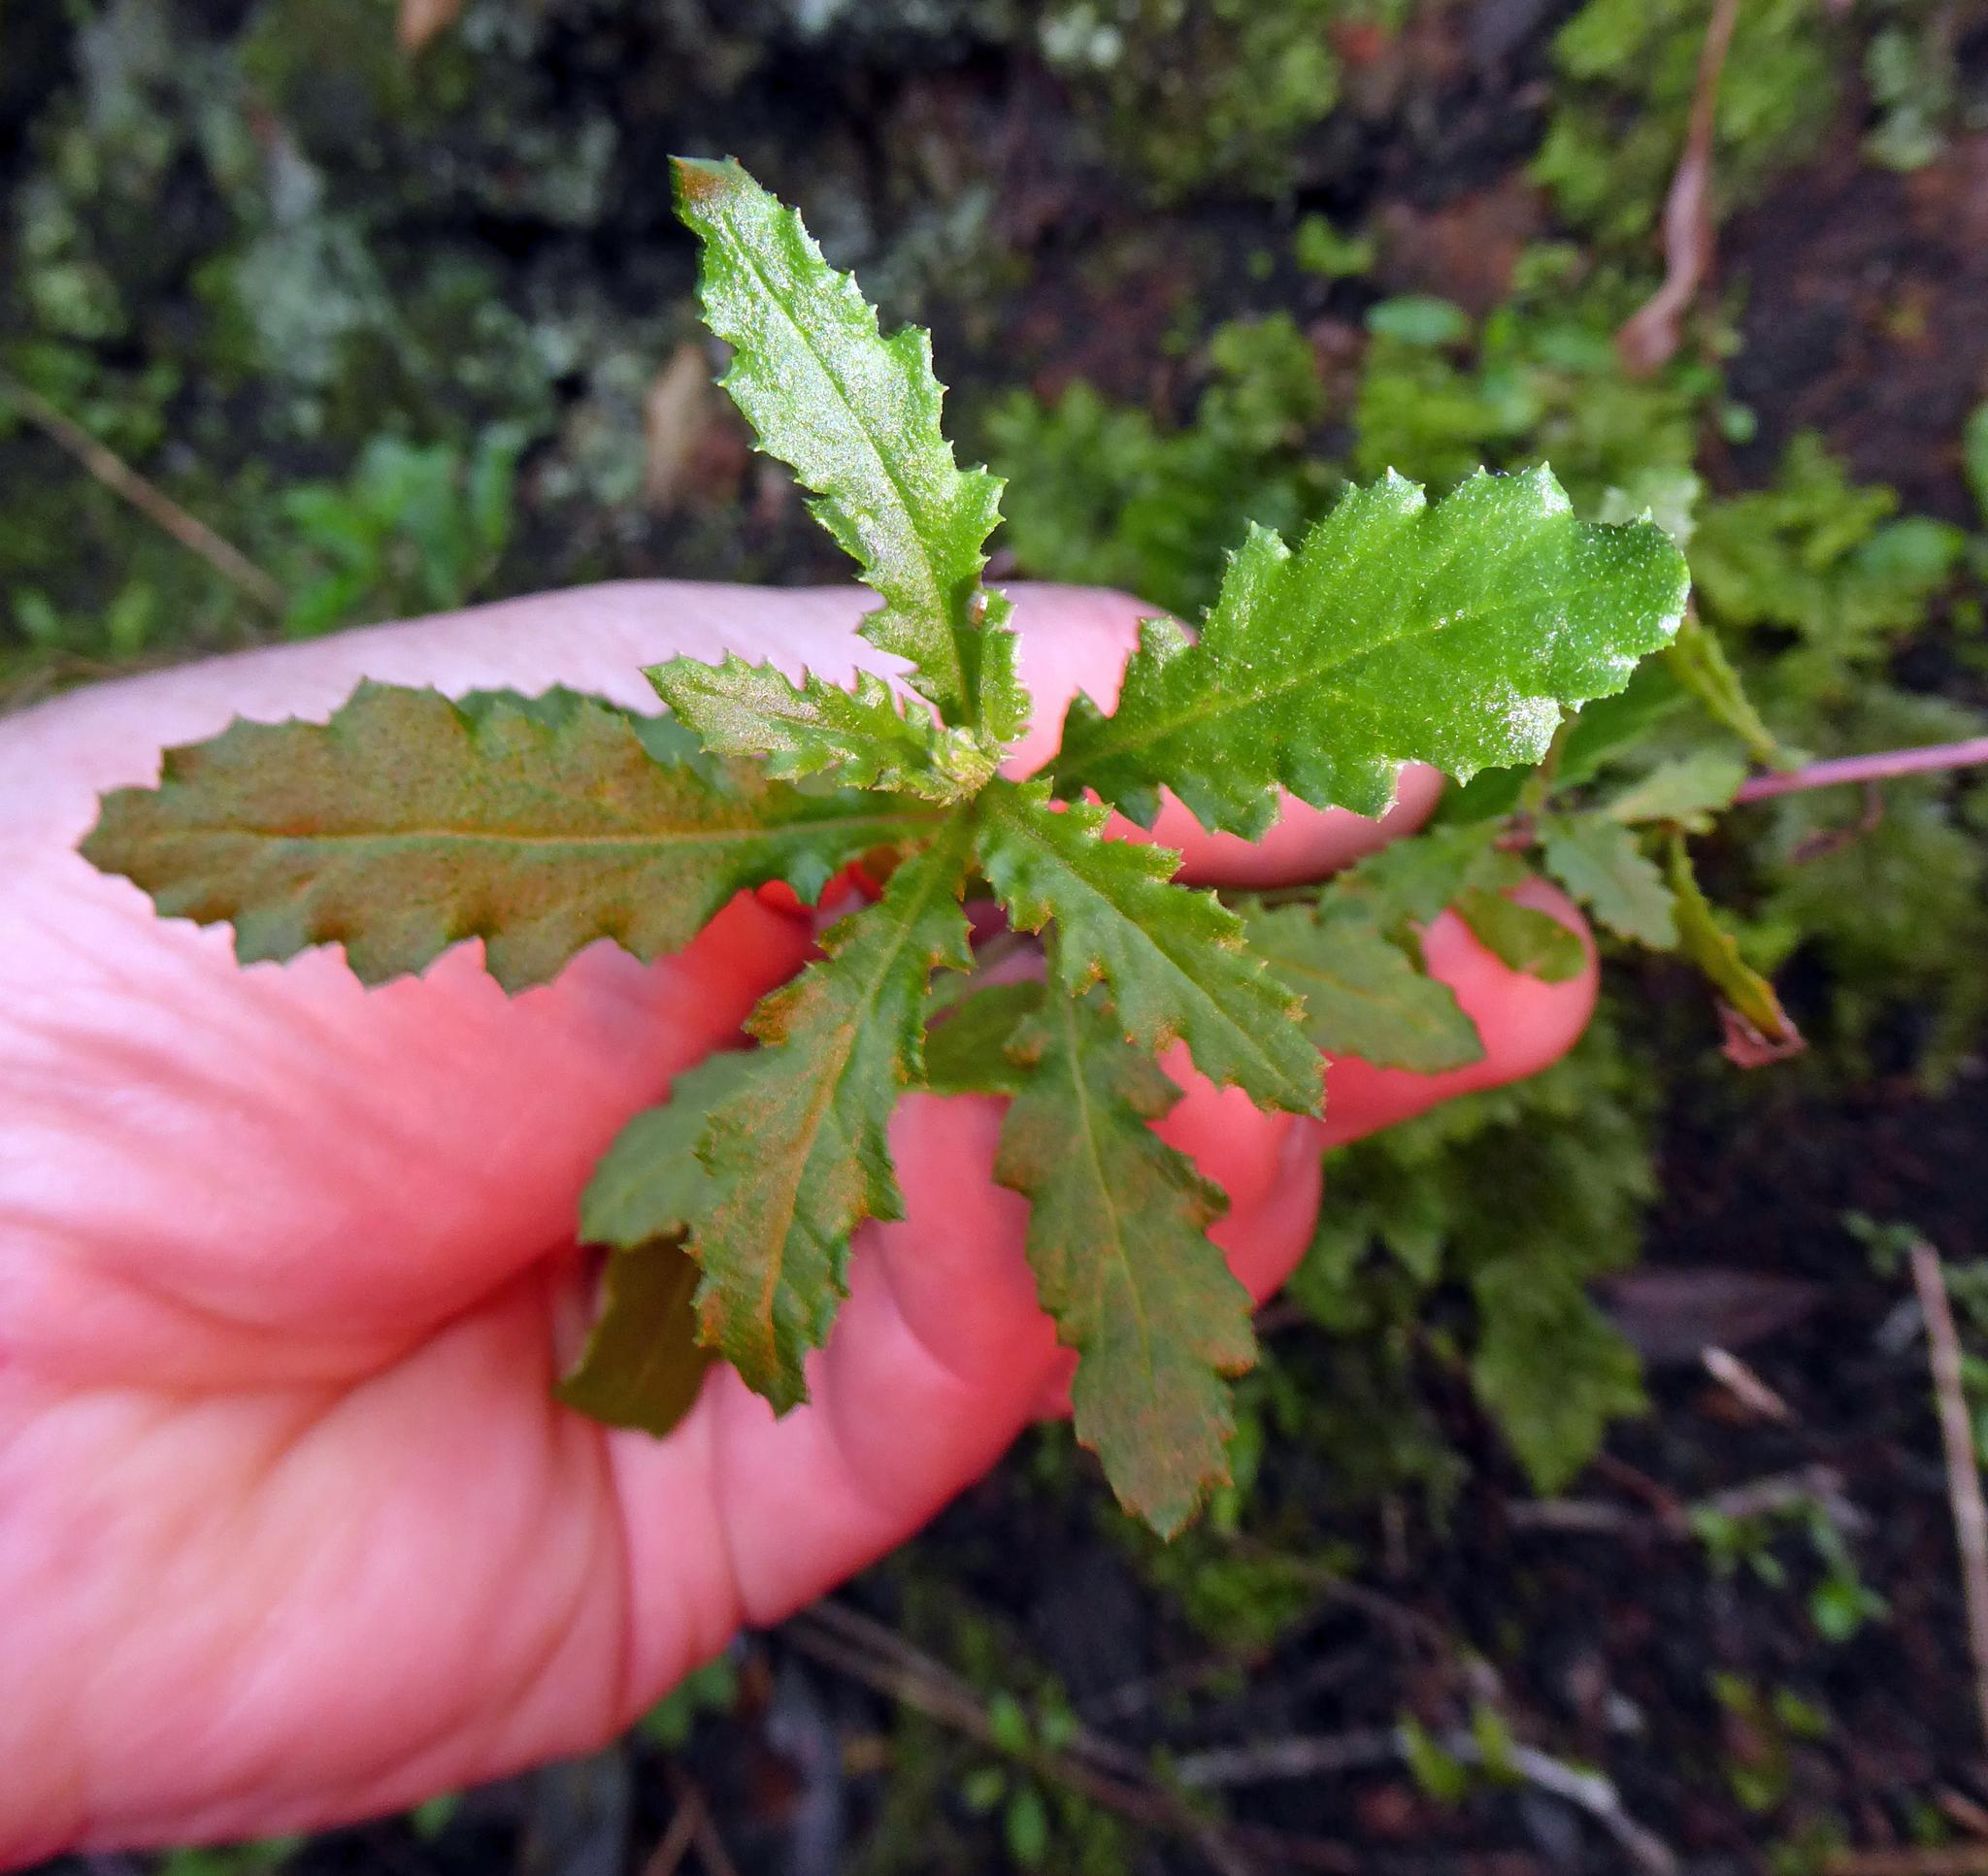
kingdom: Plantae
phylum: Tracheophyta
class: Magnoliopsida
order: Asterales
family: Asteraceae
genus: Senecio
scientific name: Senecio biserratus
